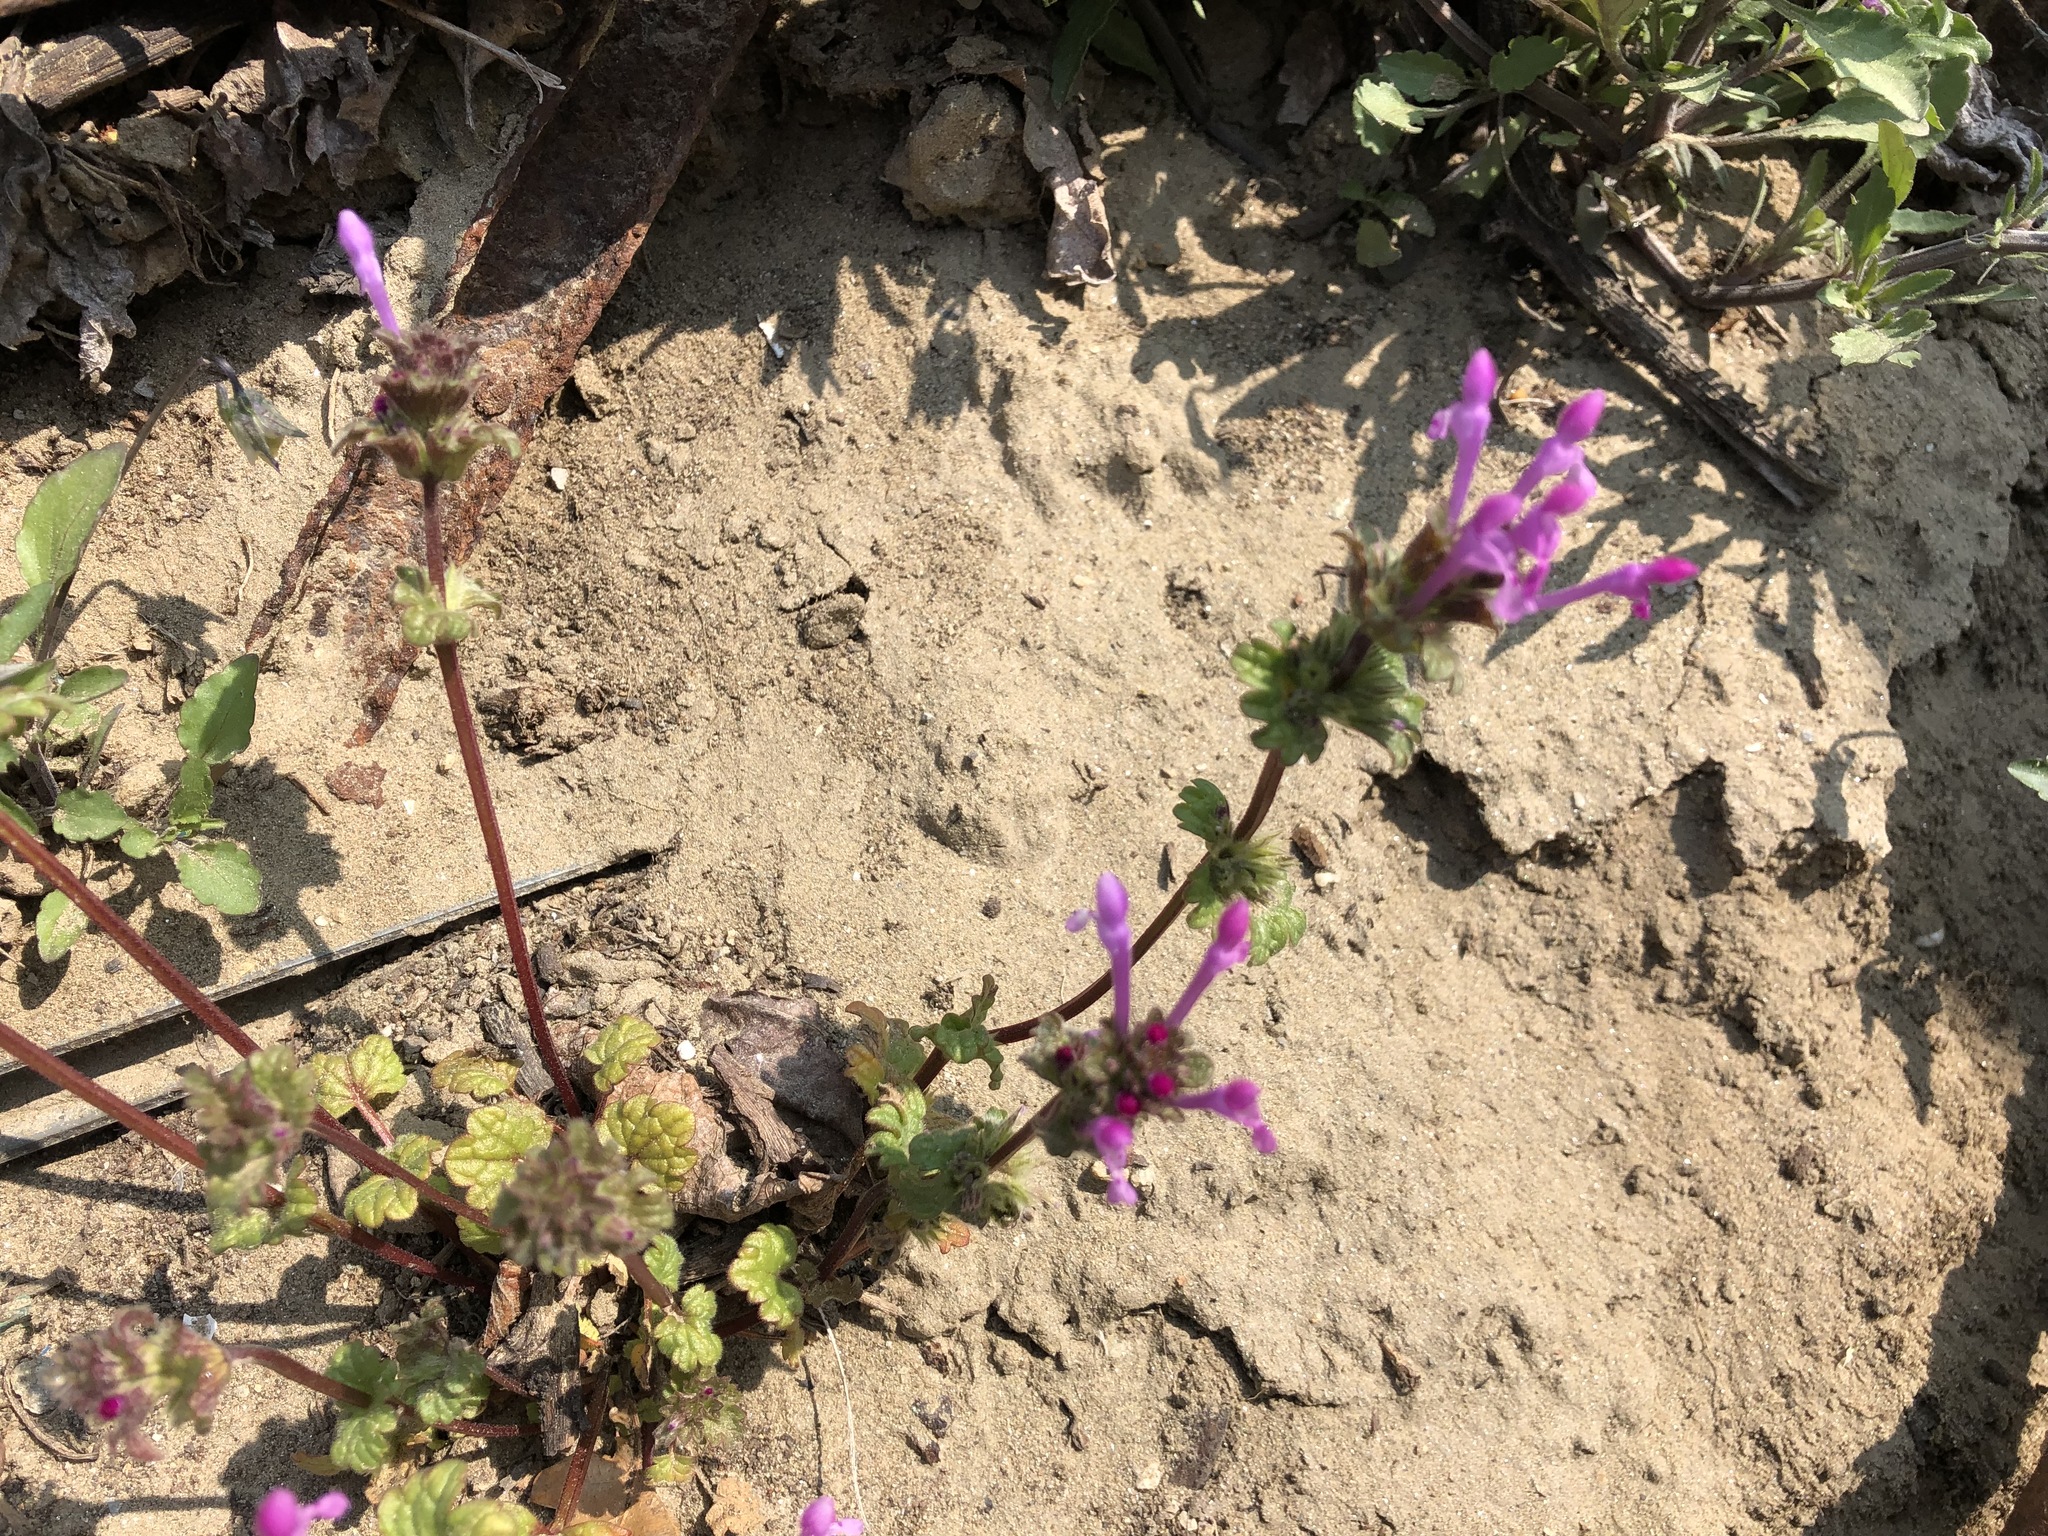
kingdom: Plantae
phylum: Tracheophyta
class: Magnoliopsida
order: Lamiales
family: Lamiaceae
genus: Lamium
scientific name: Lamium amplexicaule
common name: Henbit dead-nettle
